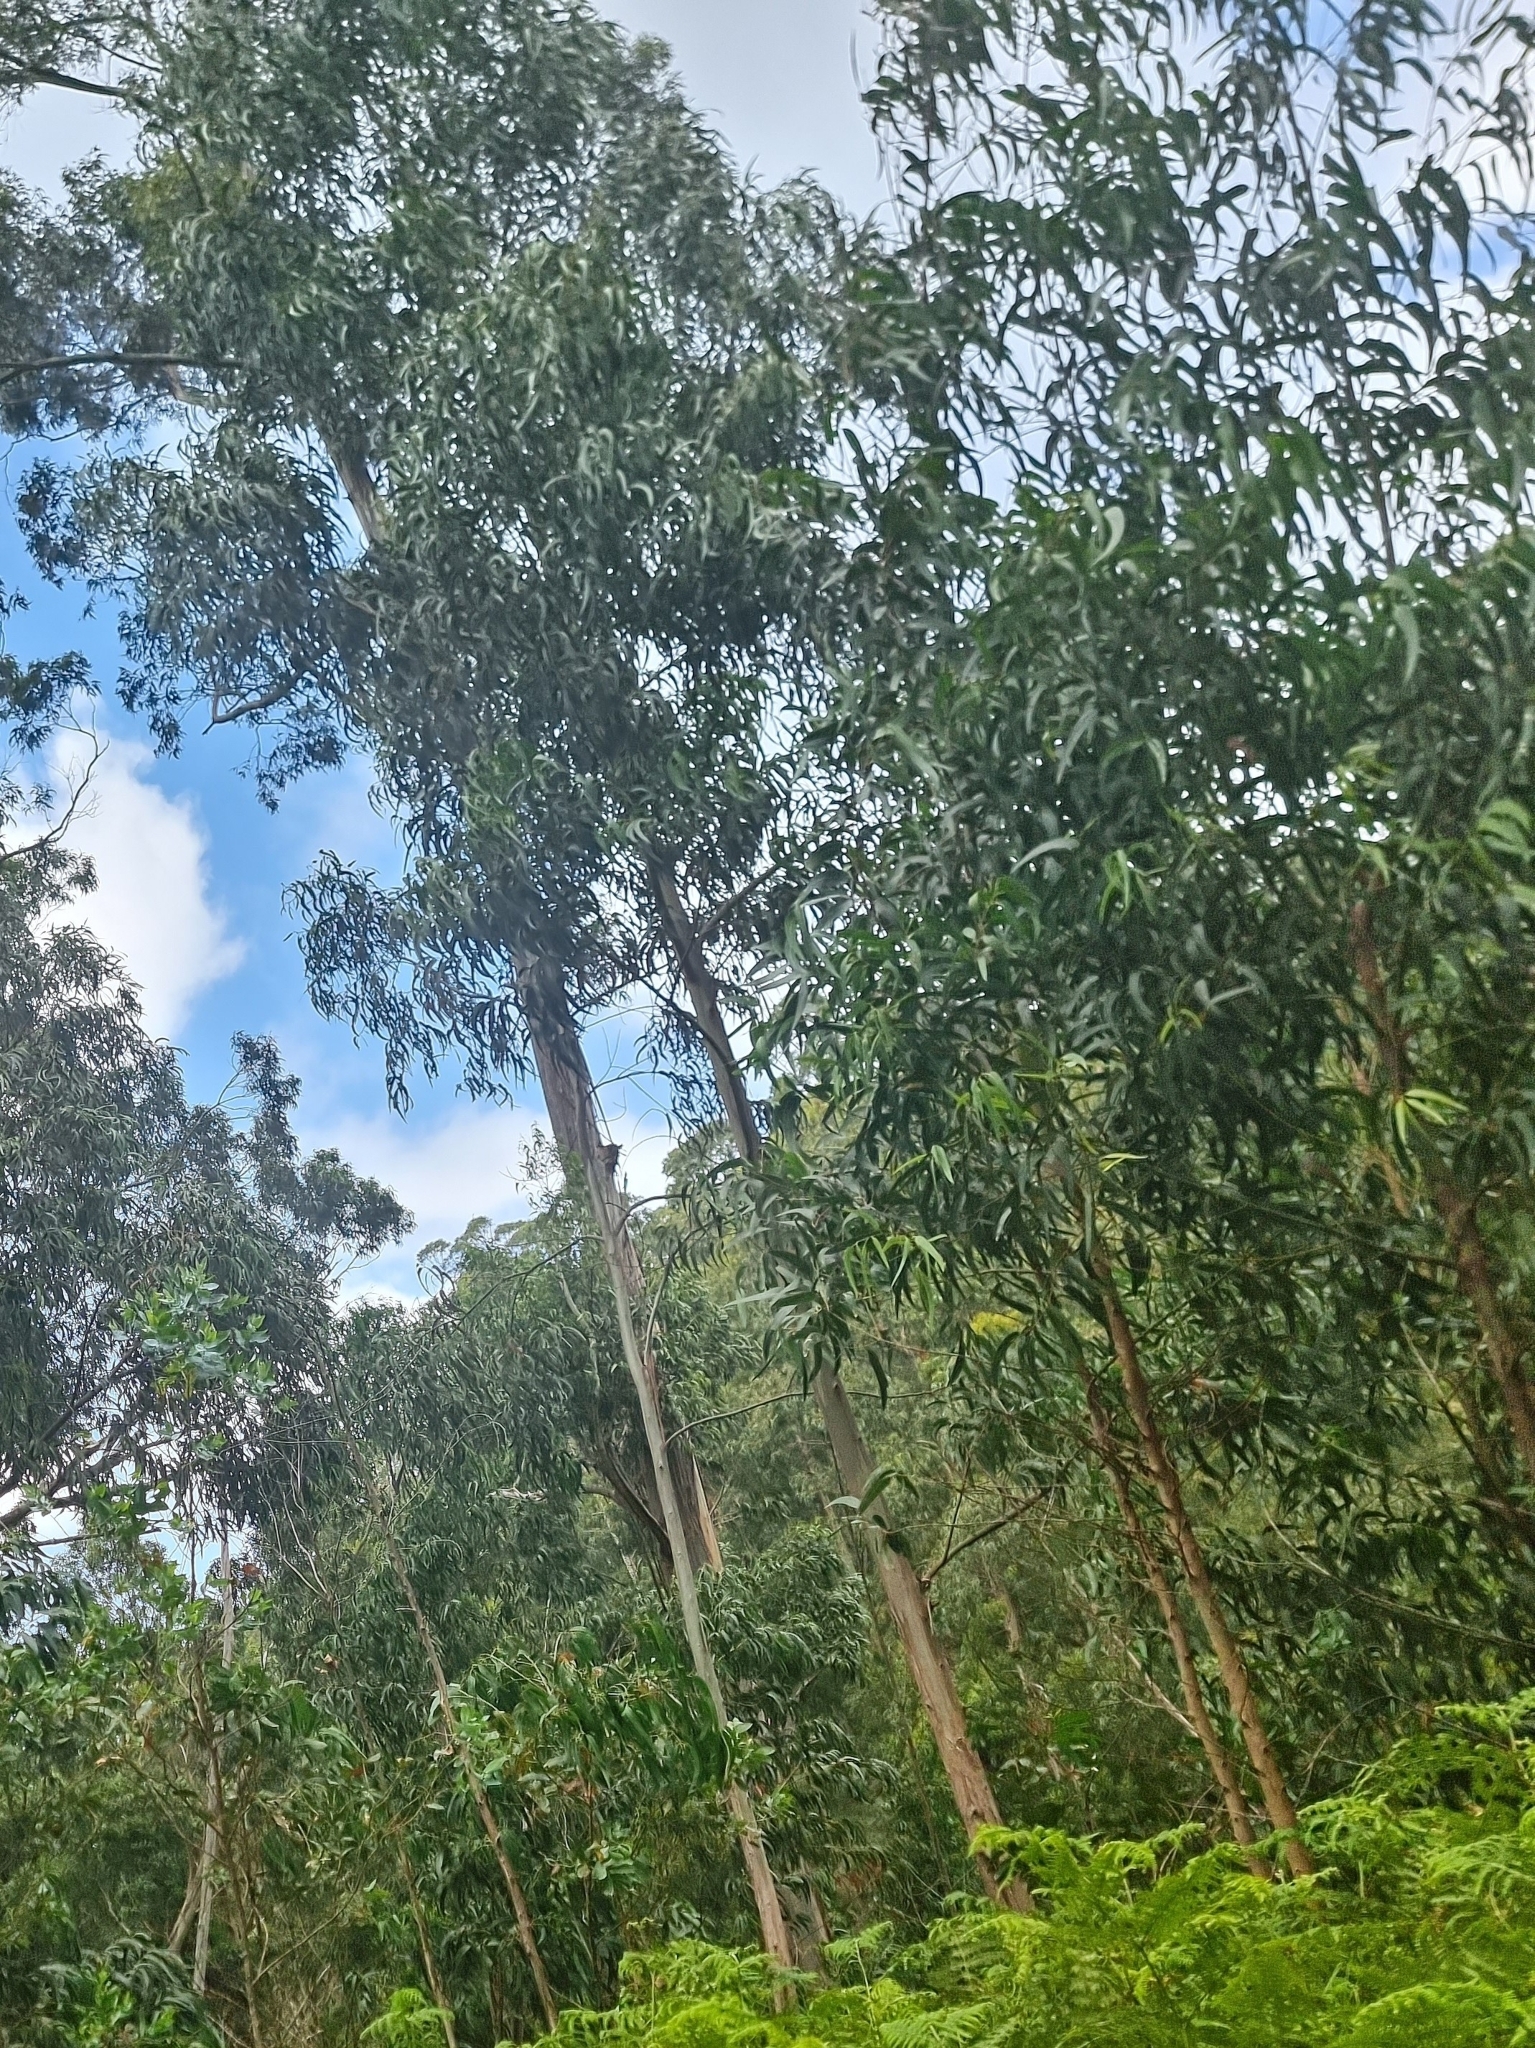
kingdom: Plantae
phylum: Tracheophyta
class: Magnoliopsida
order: Myrtales
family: Myrtaceae
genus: Eucalyptus
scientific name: Eucalyptus globulus
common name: Southern blue-gum
